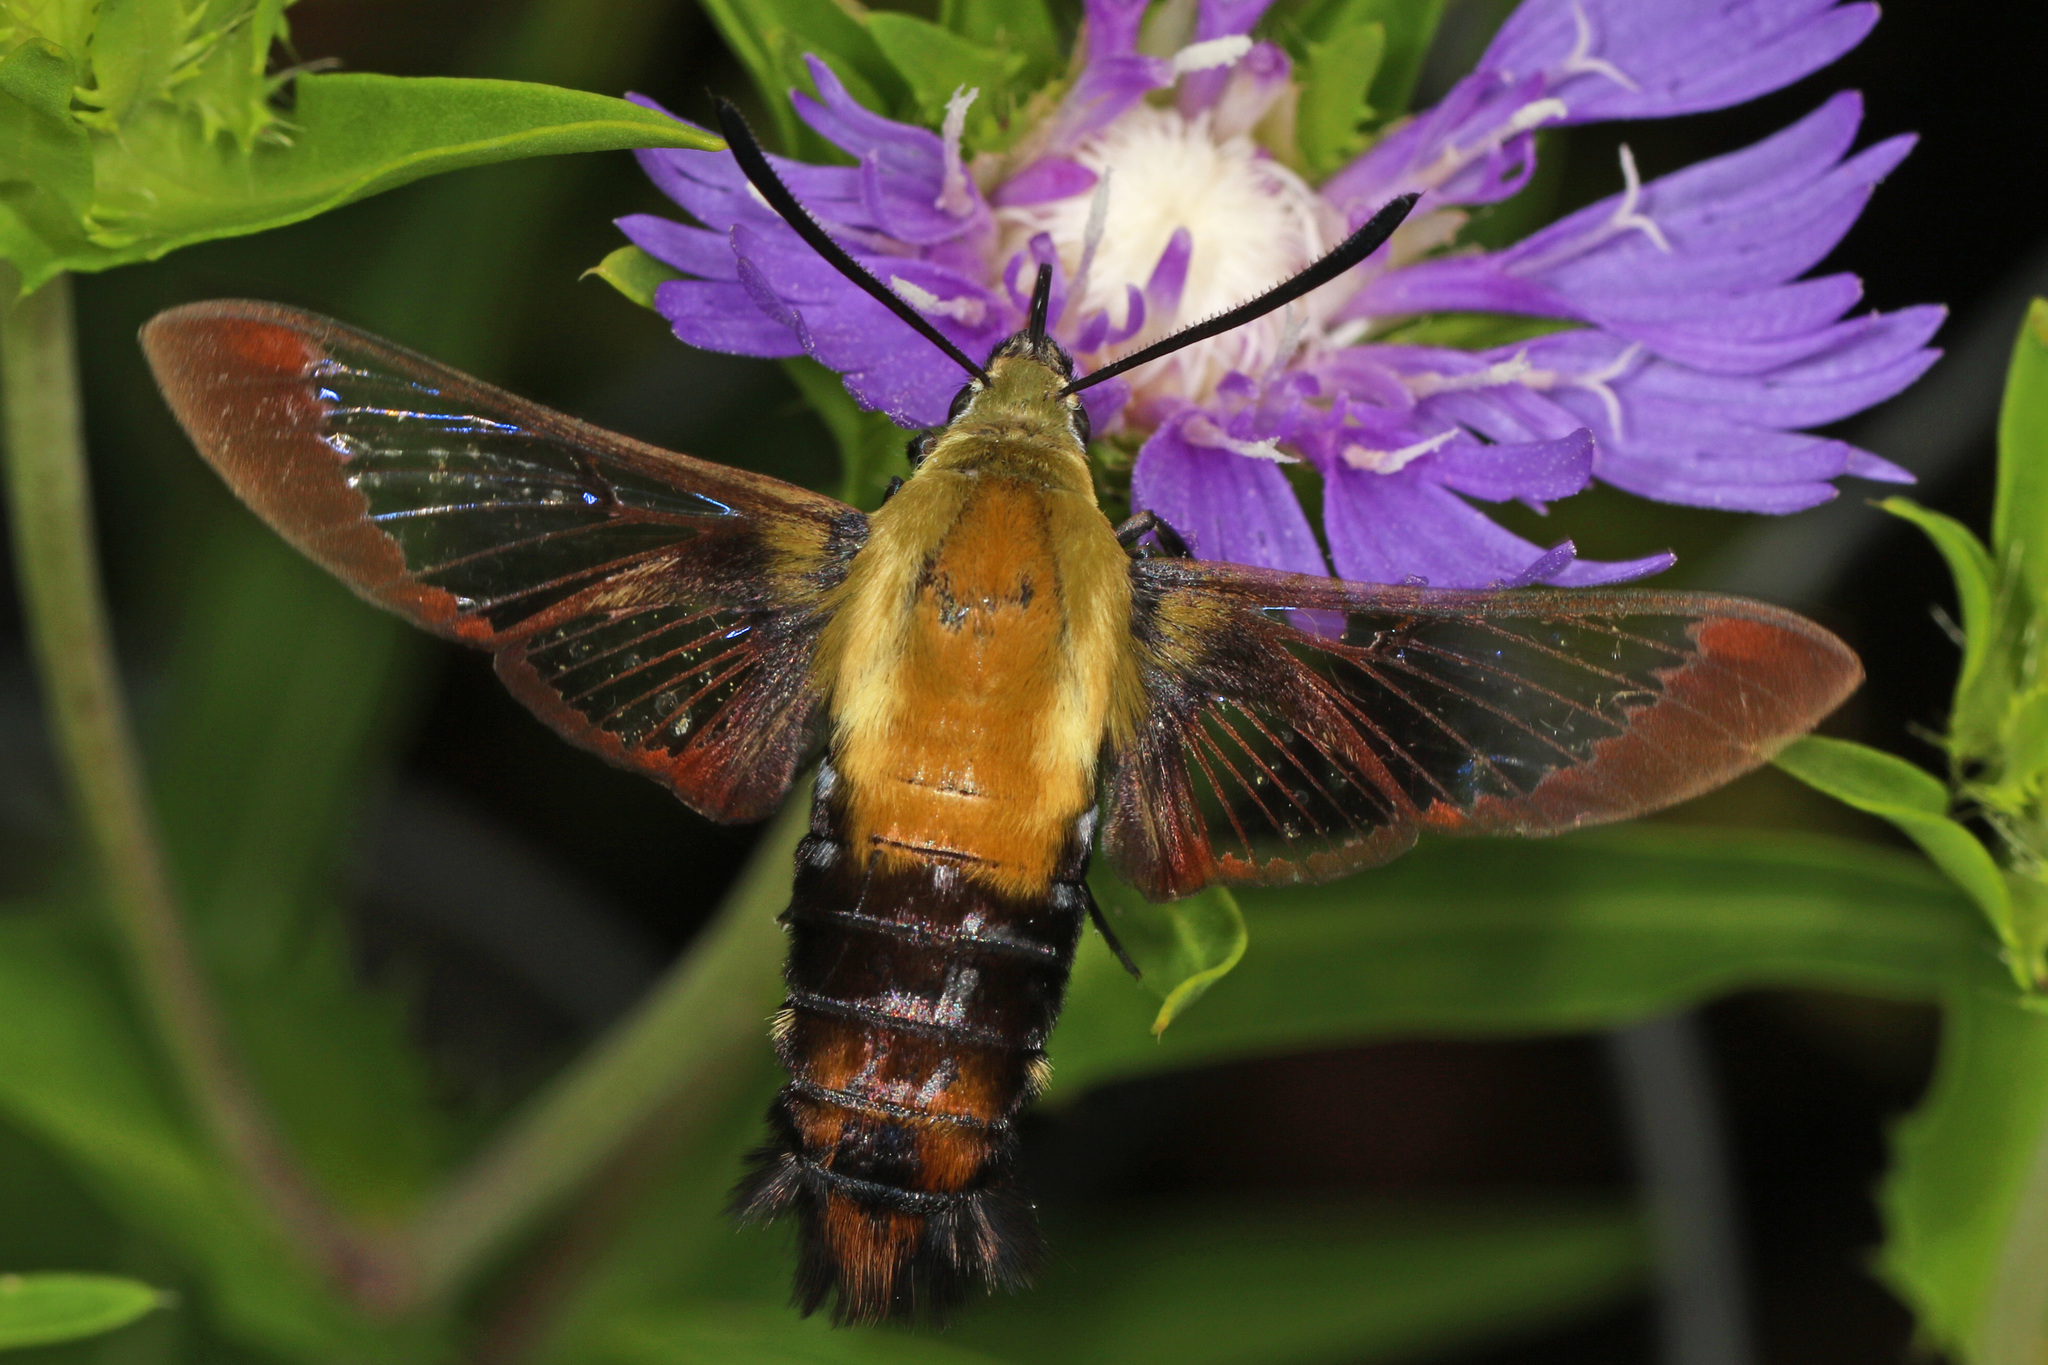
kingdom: Animalia
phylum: Arthropoda
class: Insecta
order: Lepidoptera
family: Sphingidae
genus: Hemaris
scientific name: Hemaris diffinis
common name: Bumblebee moth
